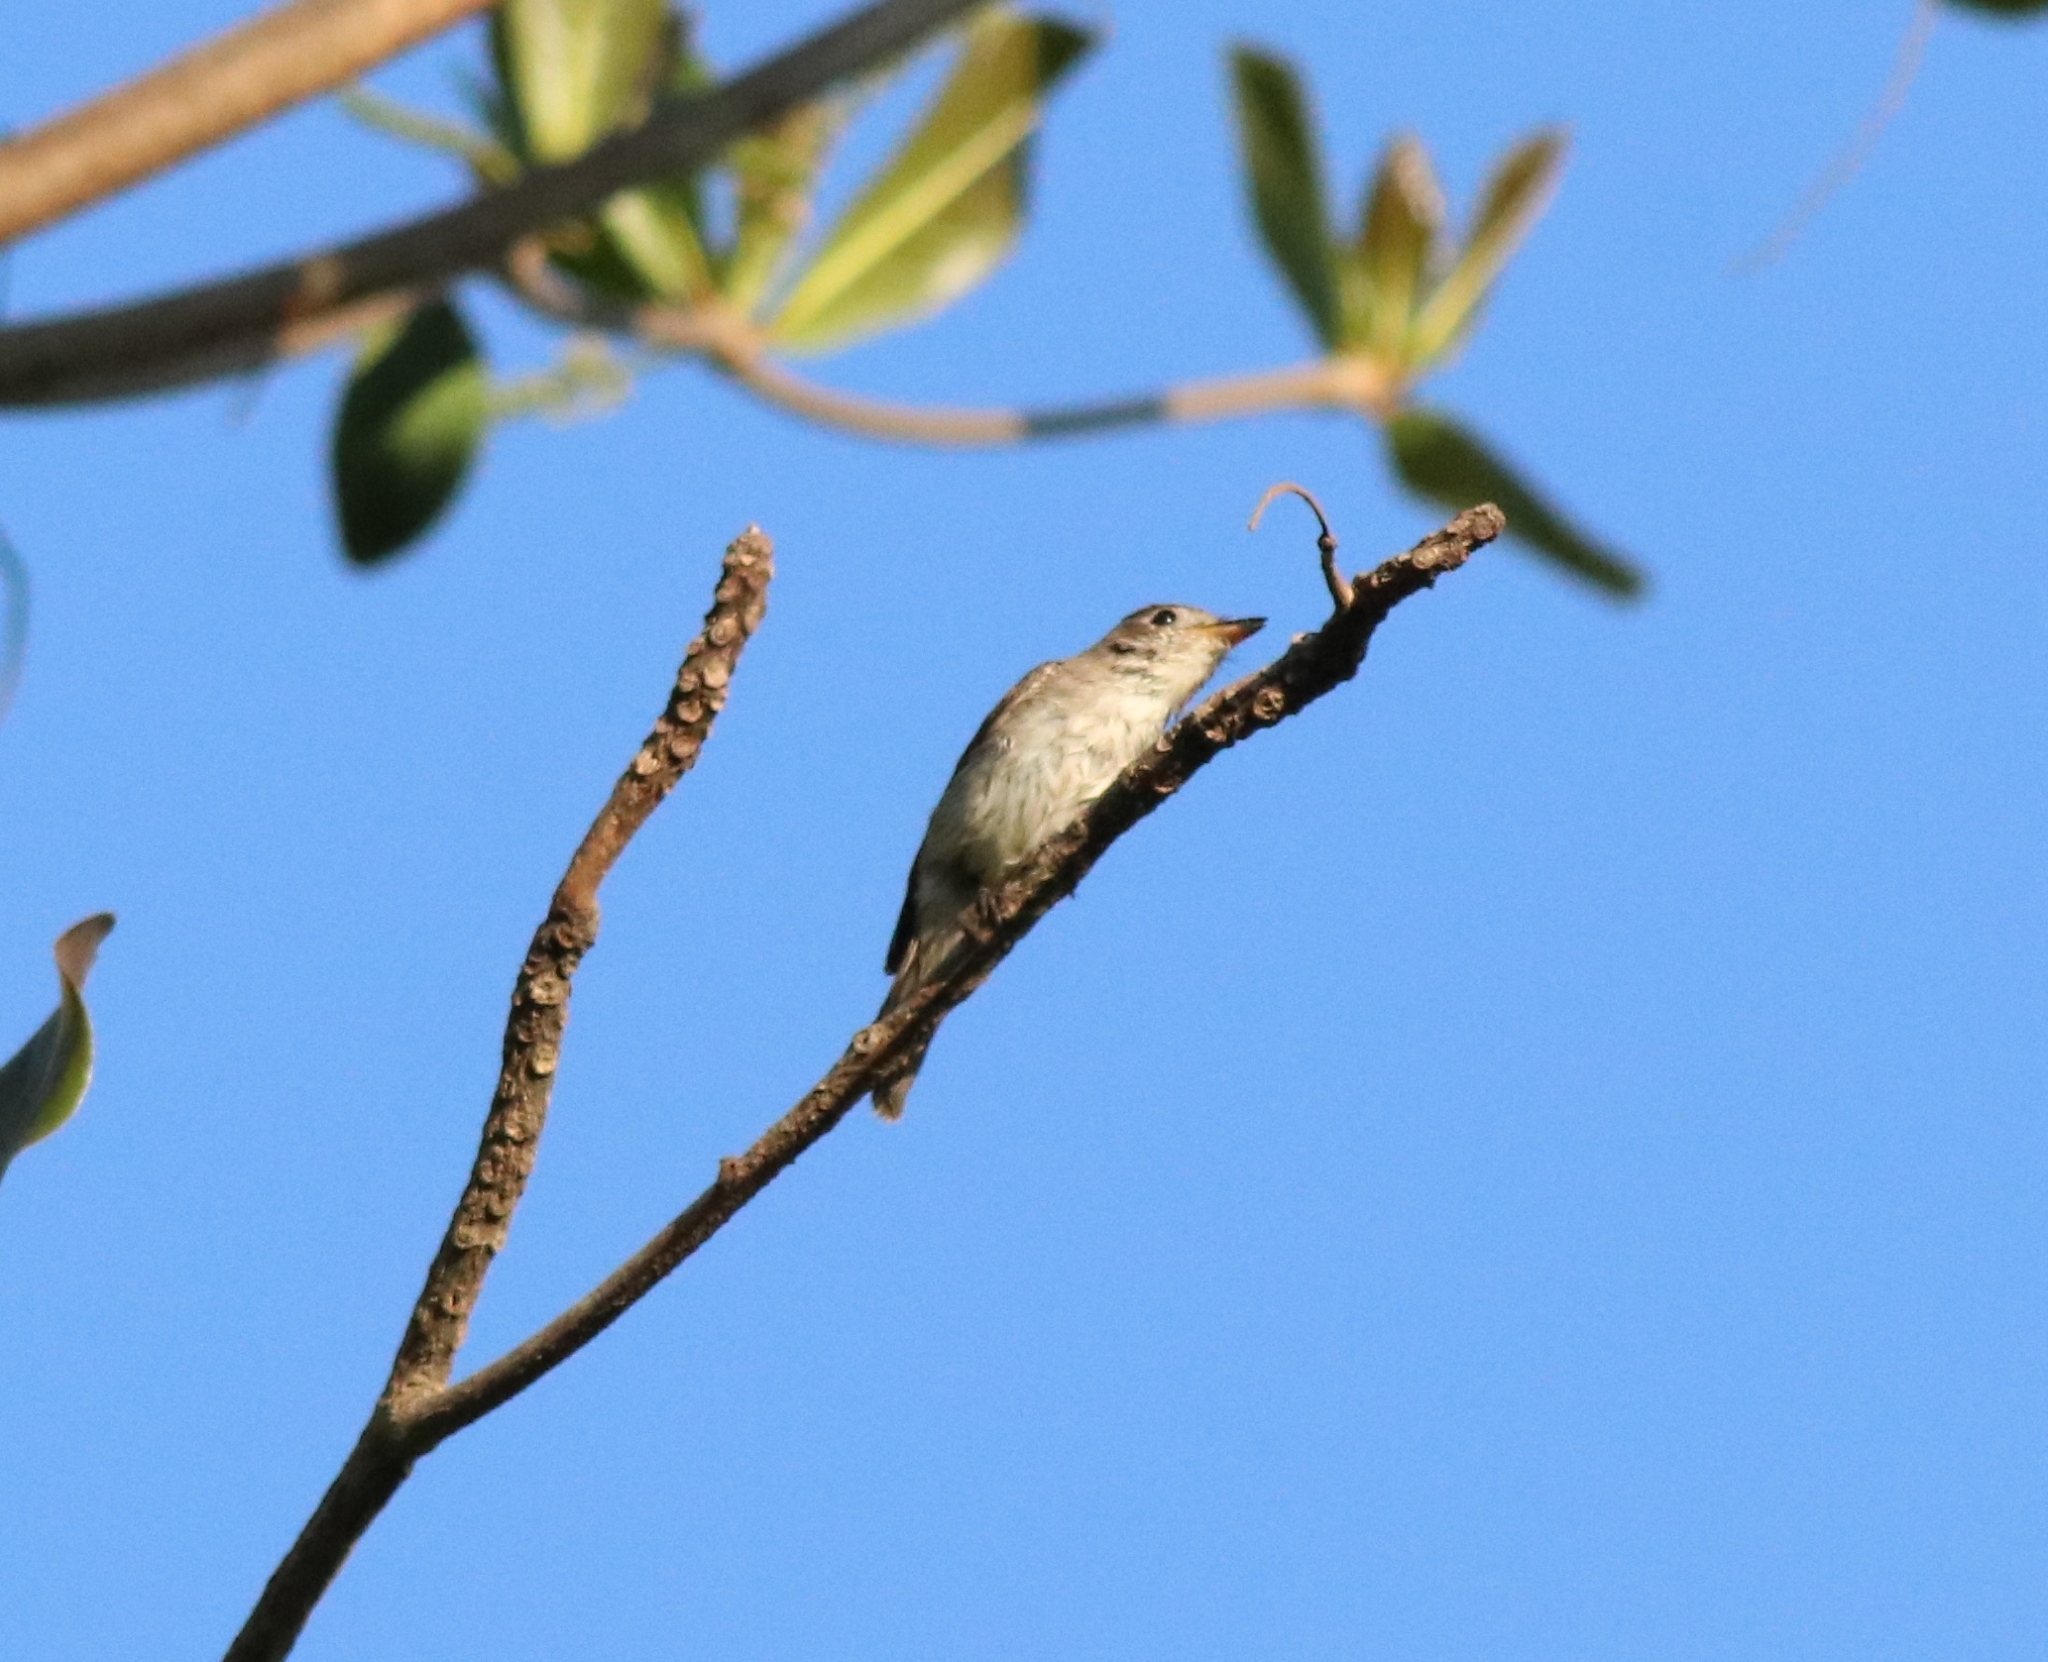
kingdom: Animalia
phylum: Chordata
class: Aves
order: Passeriformes
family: Muscicapidae
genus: Muscicapa
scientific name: Muscicapa latirostris
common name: Asian brown flycatcher
